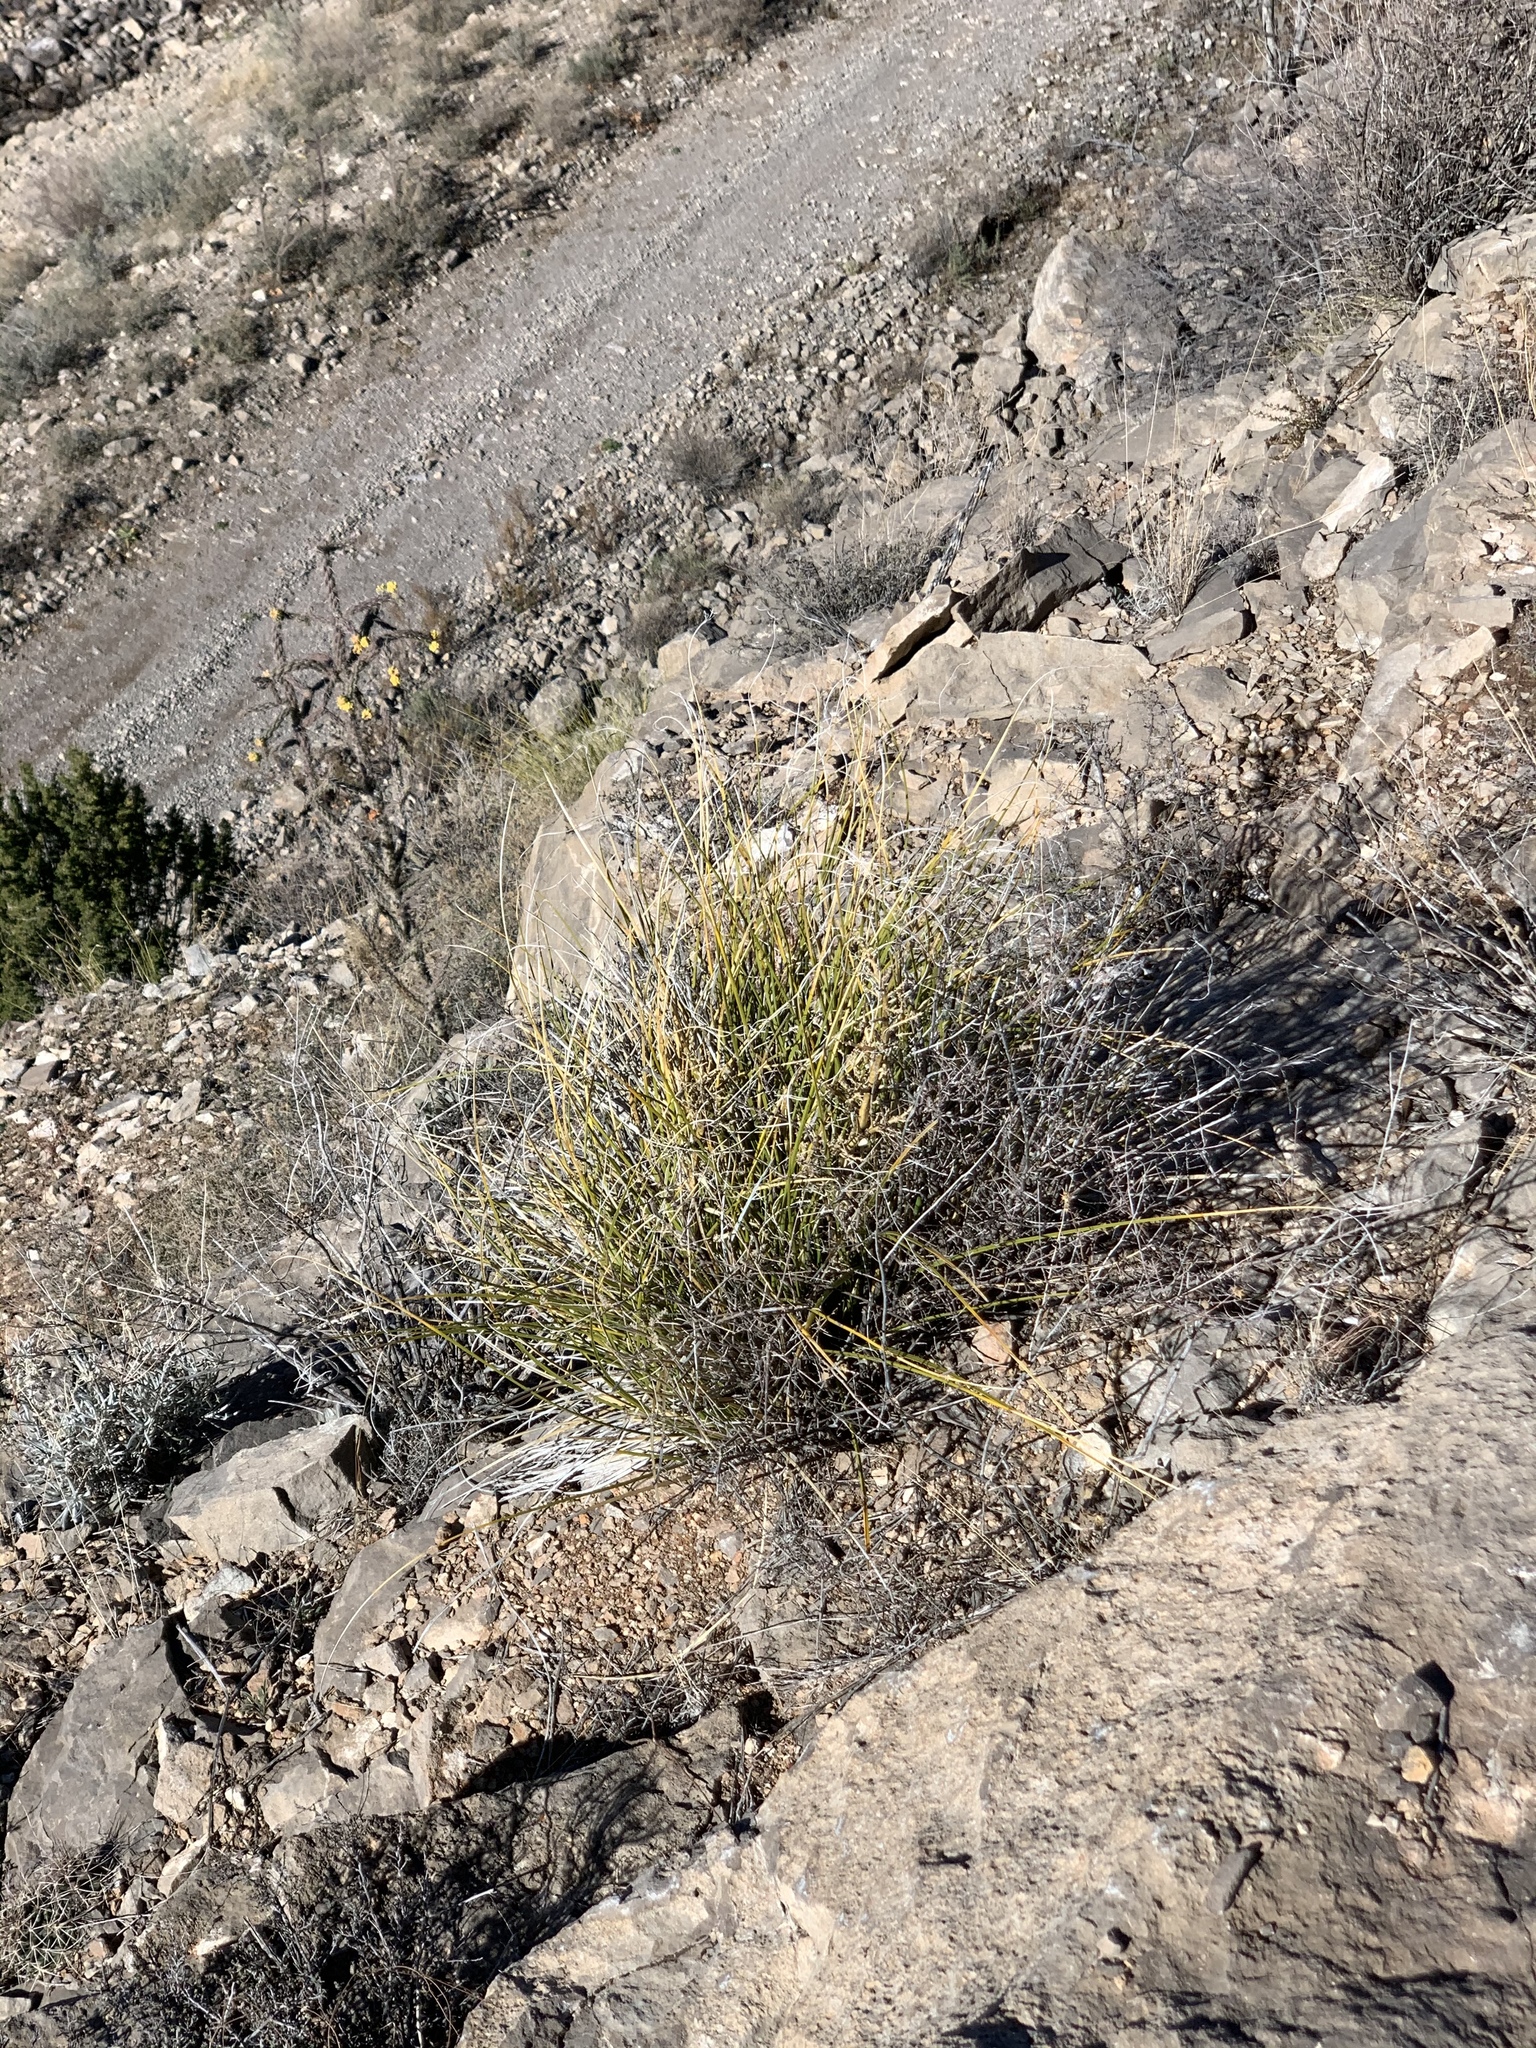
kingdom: Plantae
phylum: Tracheophyta
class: Liliopsida
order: Asparagales
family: Asparagaceae
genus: Nolina
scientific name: Nolina microcarpa
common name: Bear-grass
